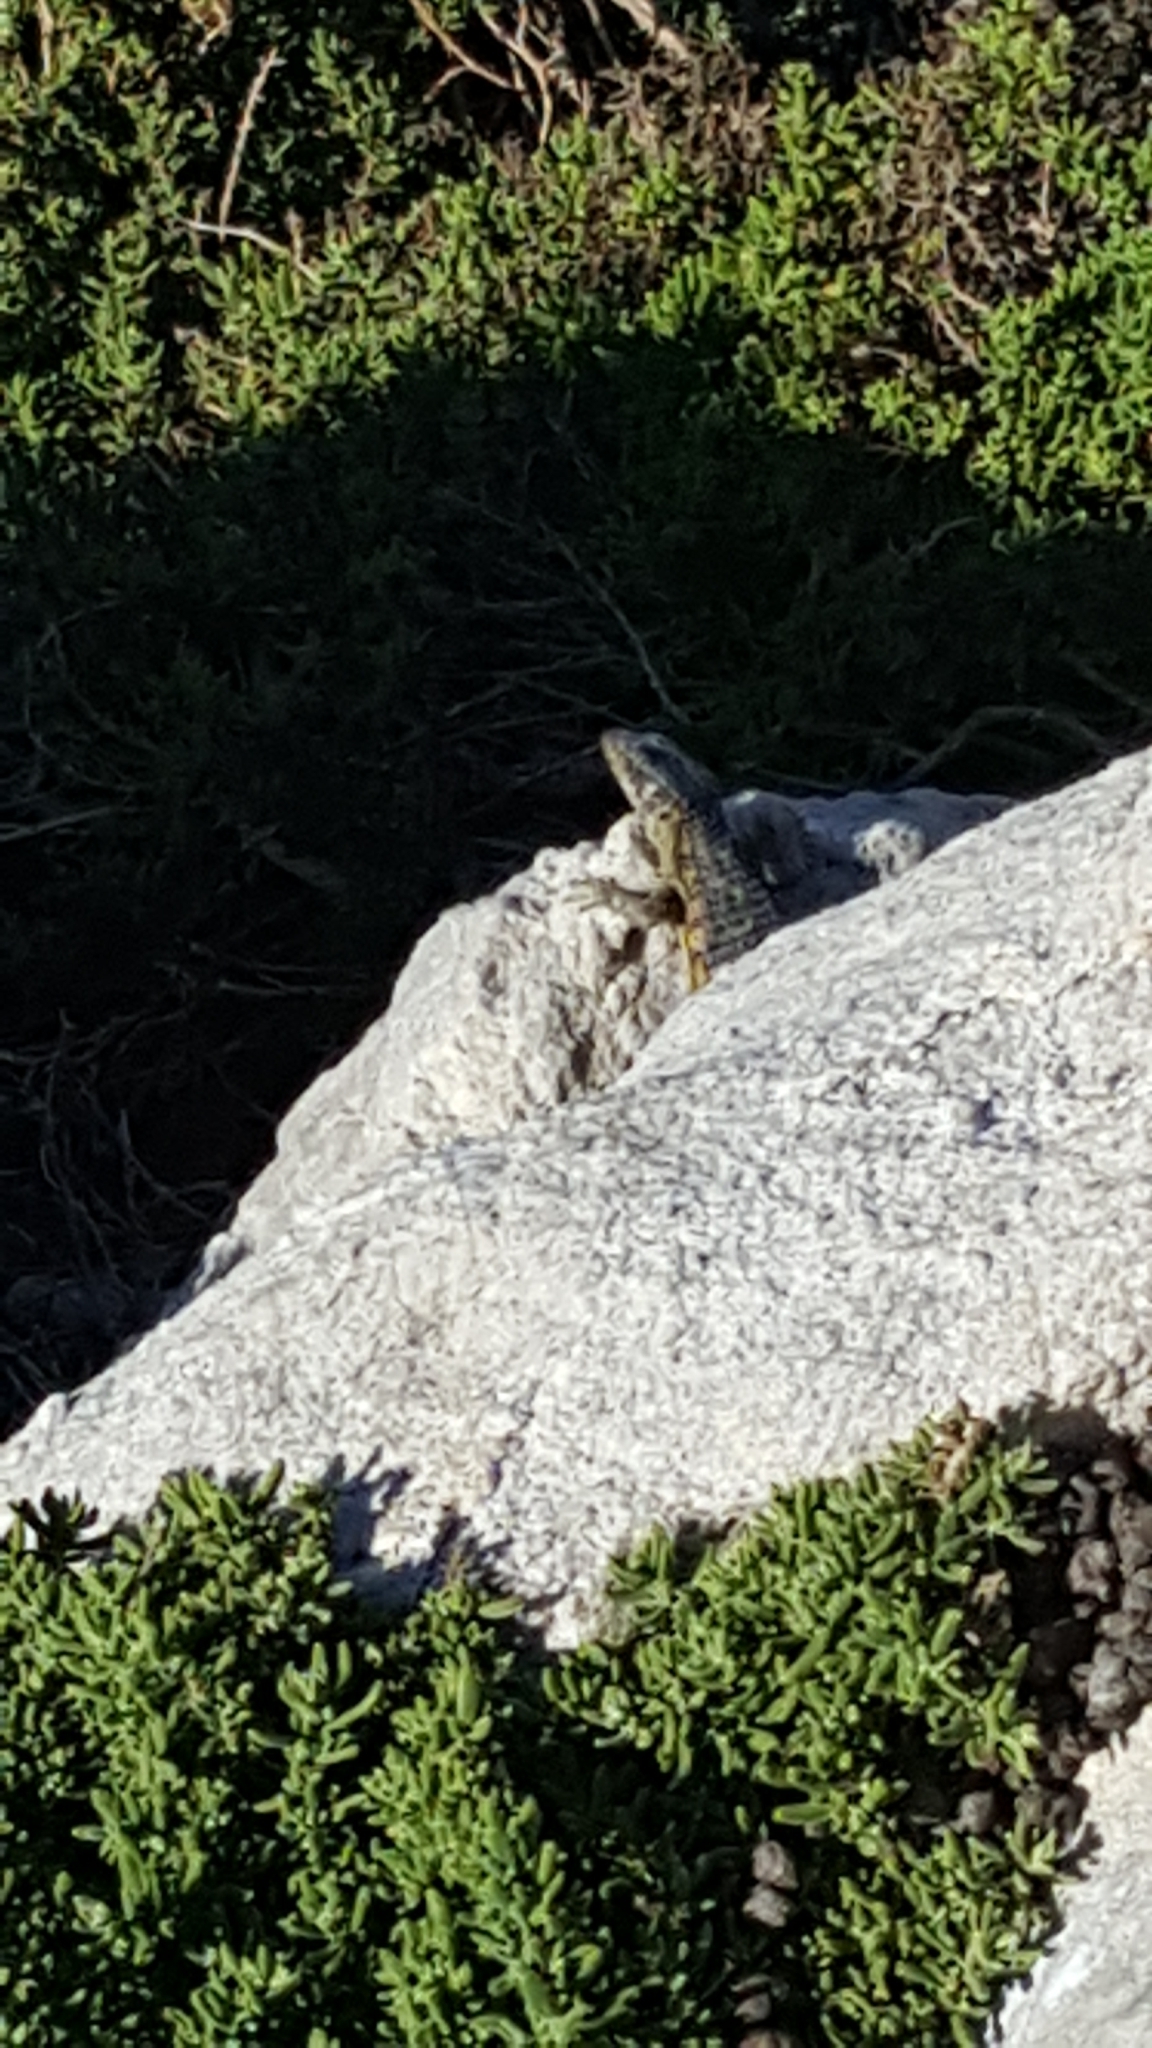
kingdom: Animalia
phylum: Chordata
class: Squamata
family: Cordylidae
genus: Cordylus
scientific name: Cordylus cordylus
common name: Cape girdled lizard
